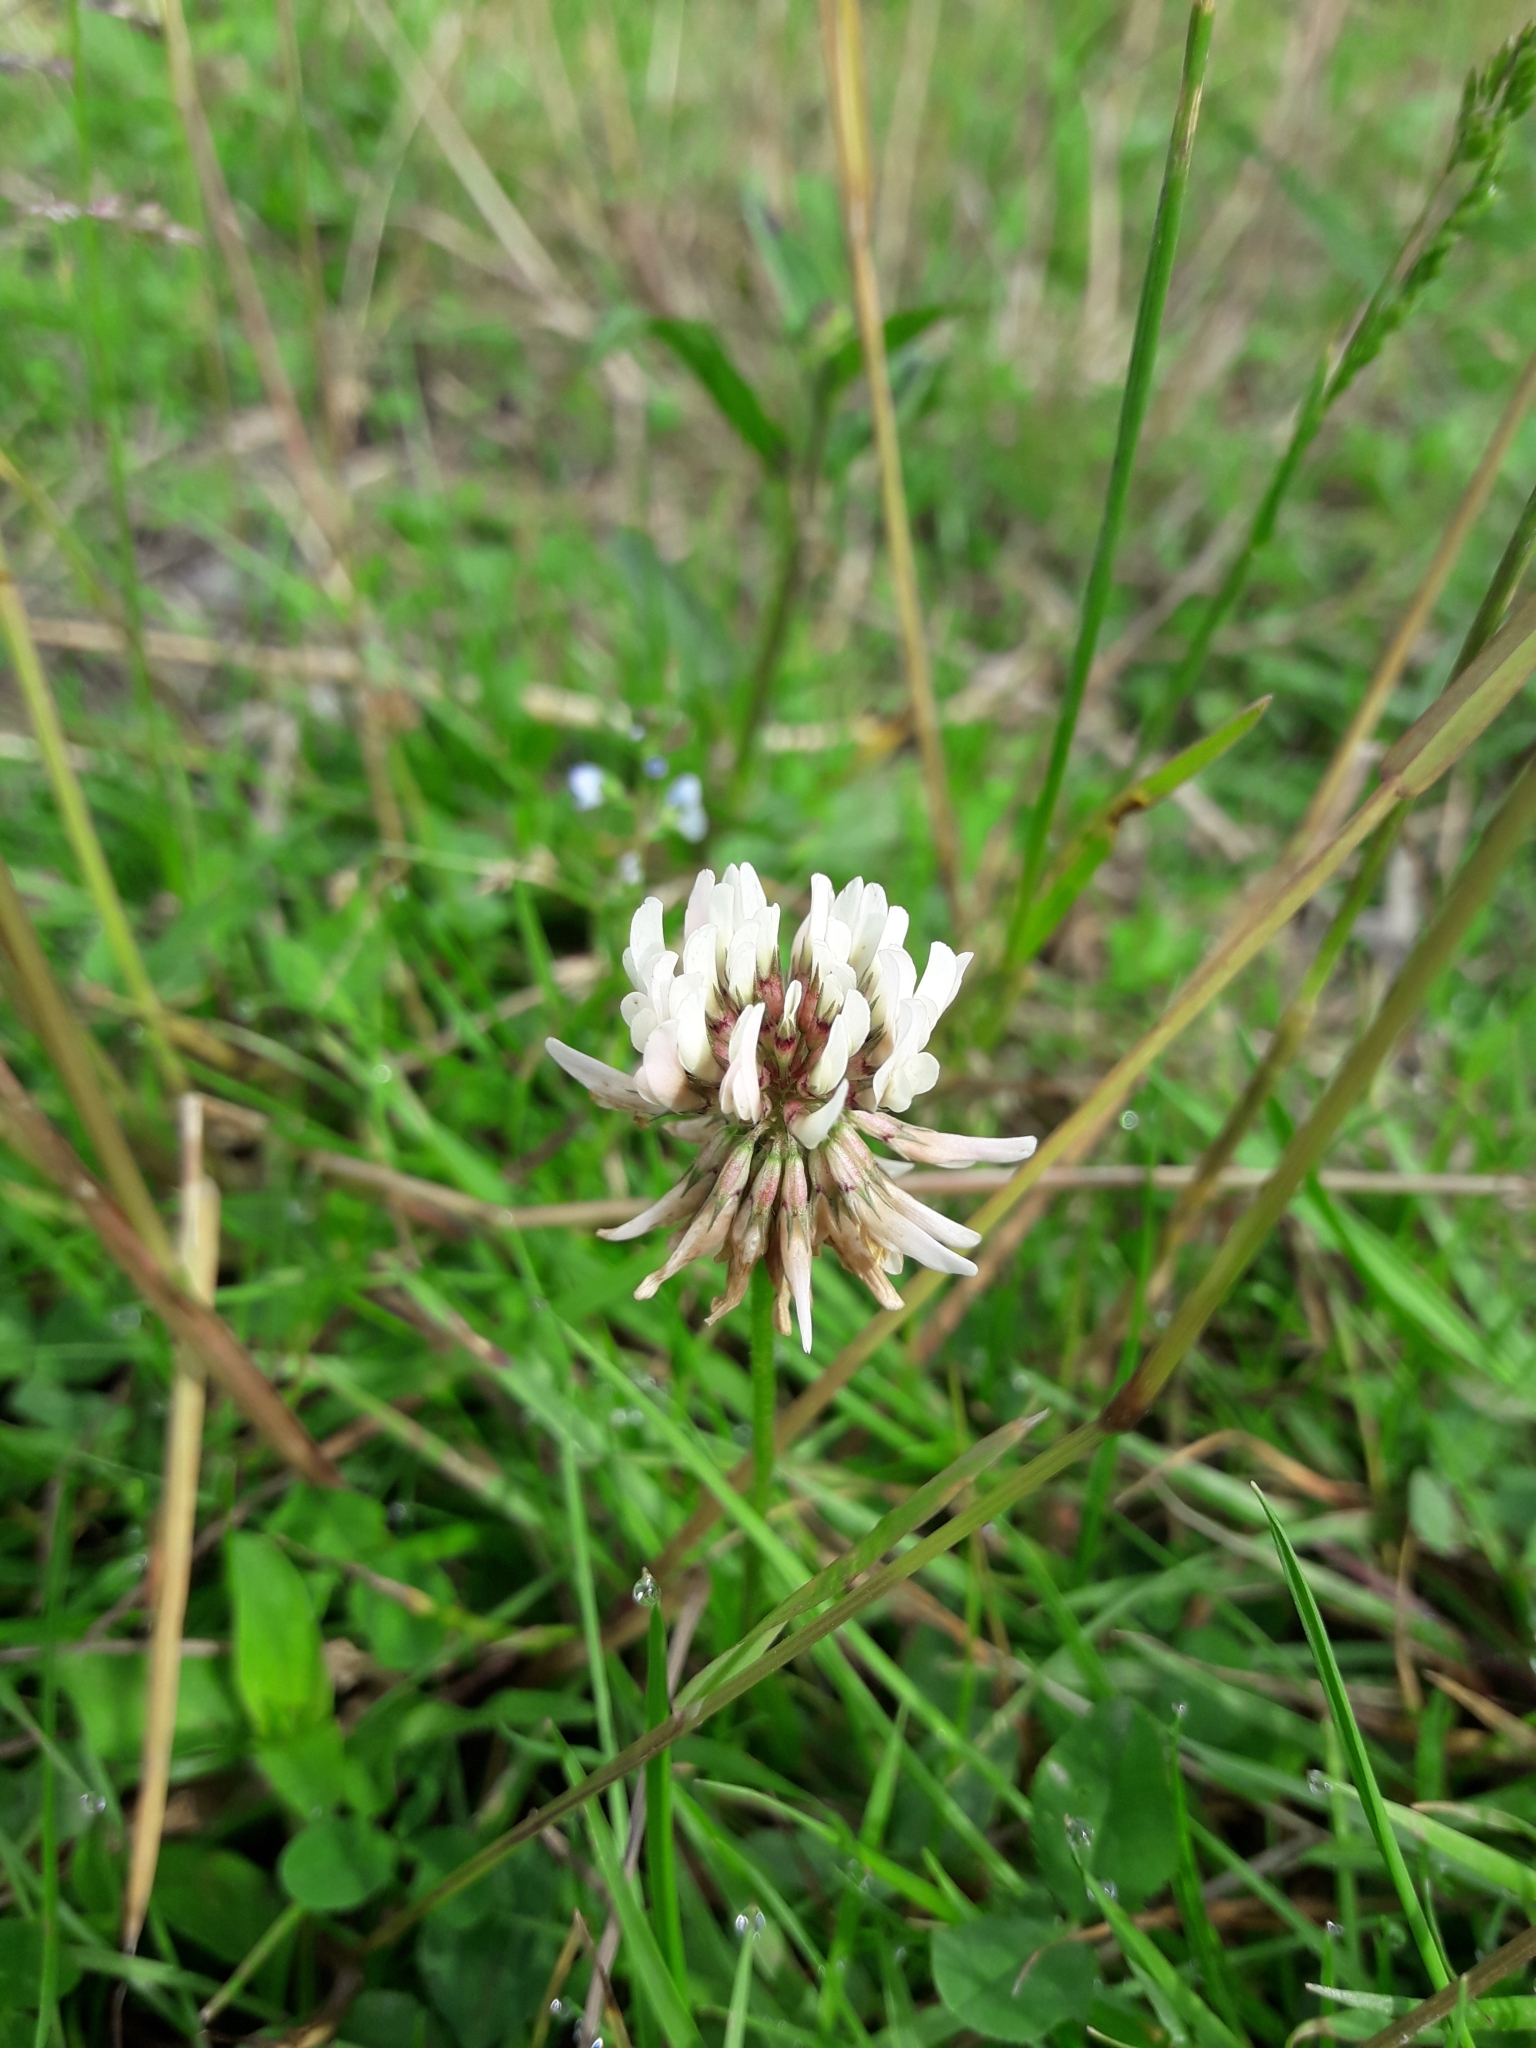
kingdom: Plantae
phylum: Tracheophyta
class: Magnoliopsida
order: Fabales
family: Fabaceae
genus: Trifolium
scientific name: Trifolium repens
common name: White clover
